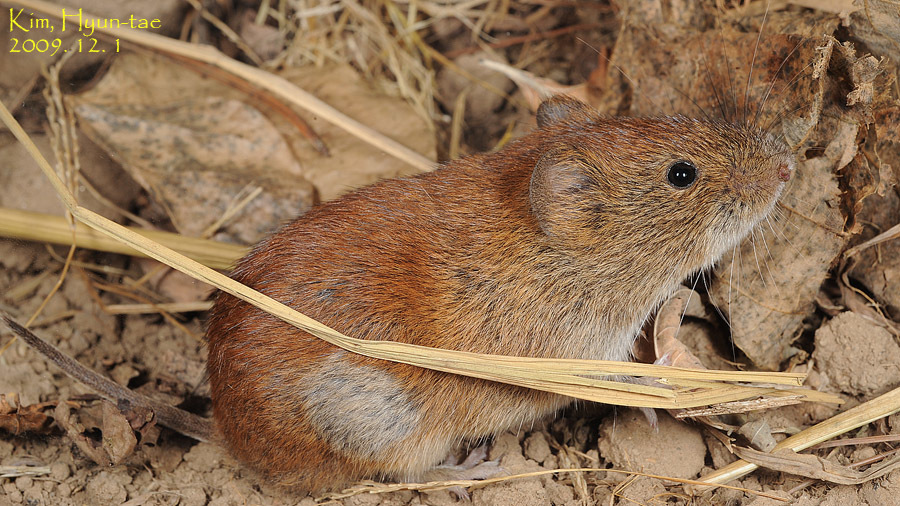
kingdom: Animalia
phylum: Chordata
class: Mammalia
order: Rodentia
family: Cricetidae
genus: Myodes
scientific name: Myodes regulus
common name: Korean red-backed vole
